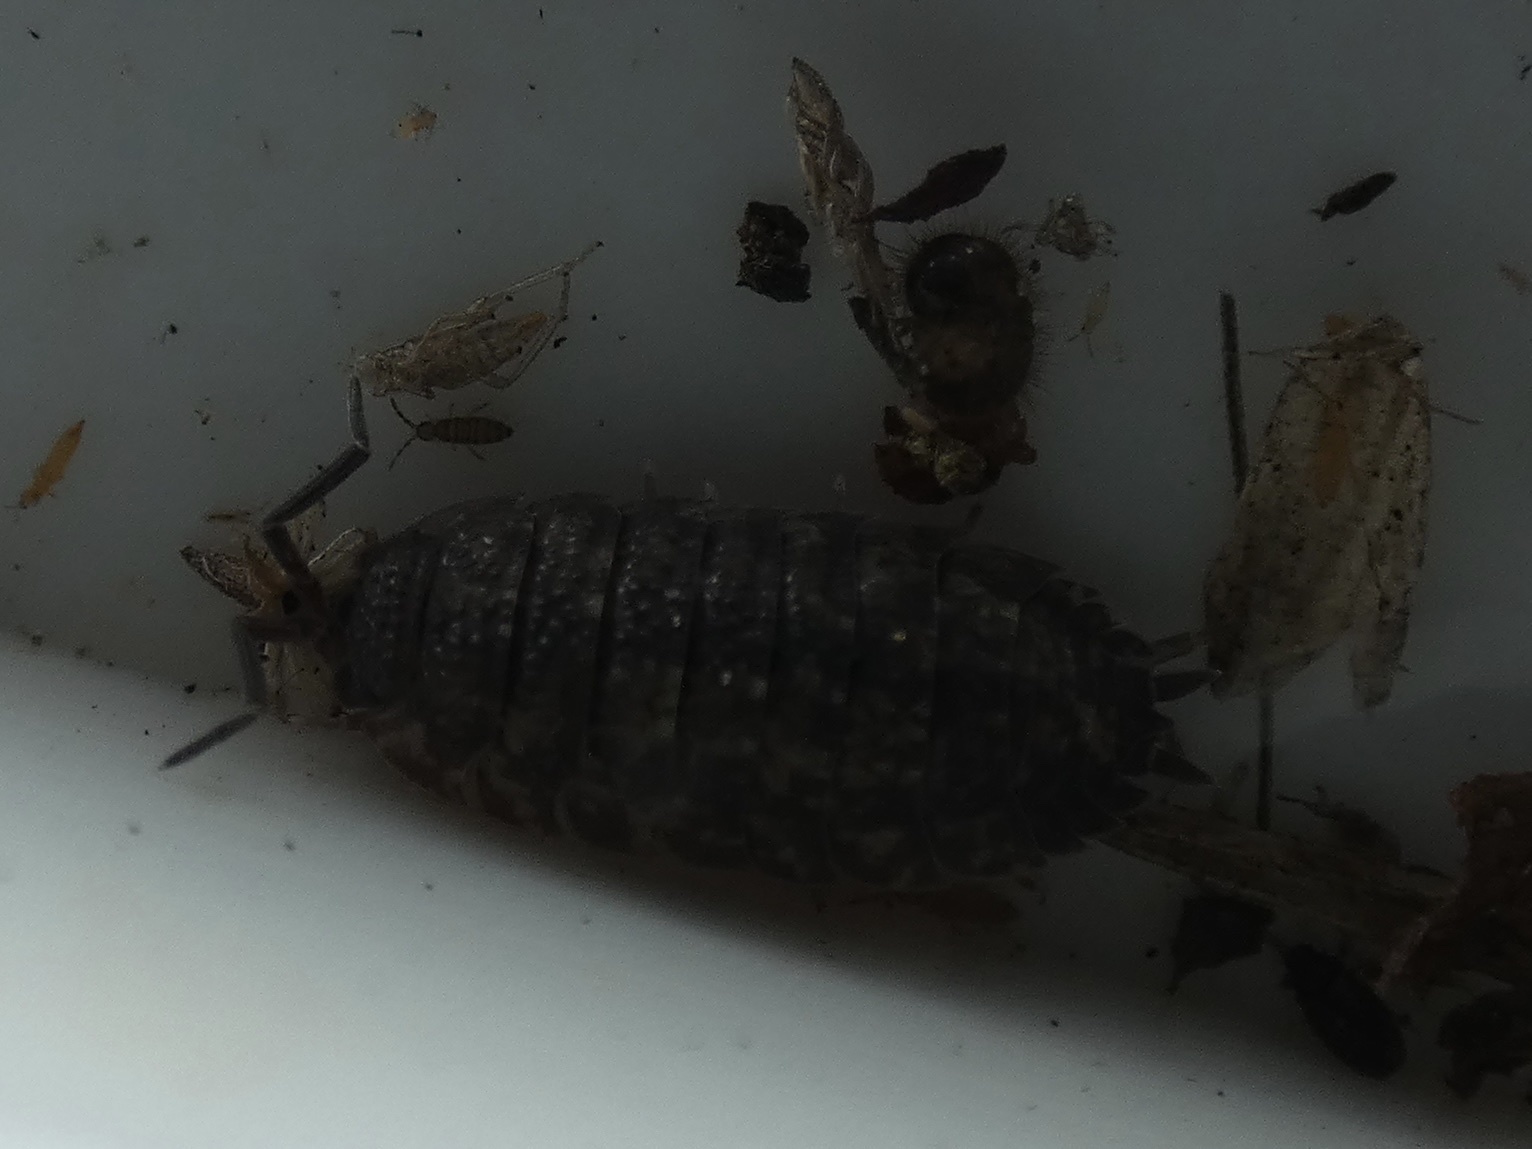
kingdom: Animalia
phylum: Arthropoda
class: Malacostraca
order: Isopoda
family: Porcellionidae
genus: Porcellio
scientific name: Porcellio scaber
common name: Common rough woodlouse
